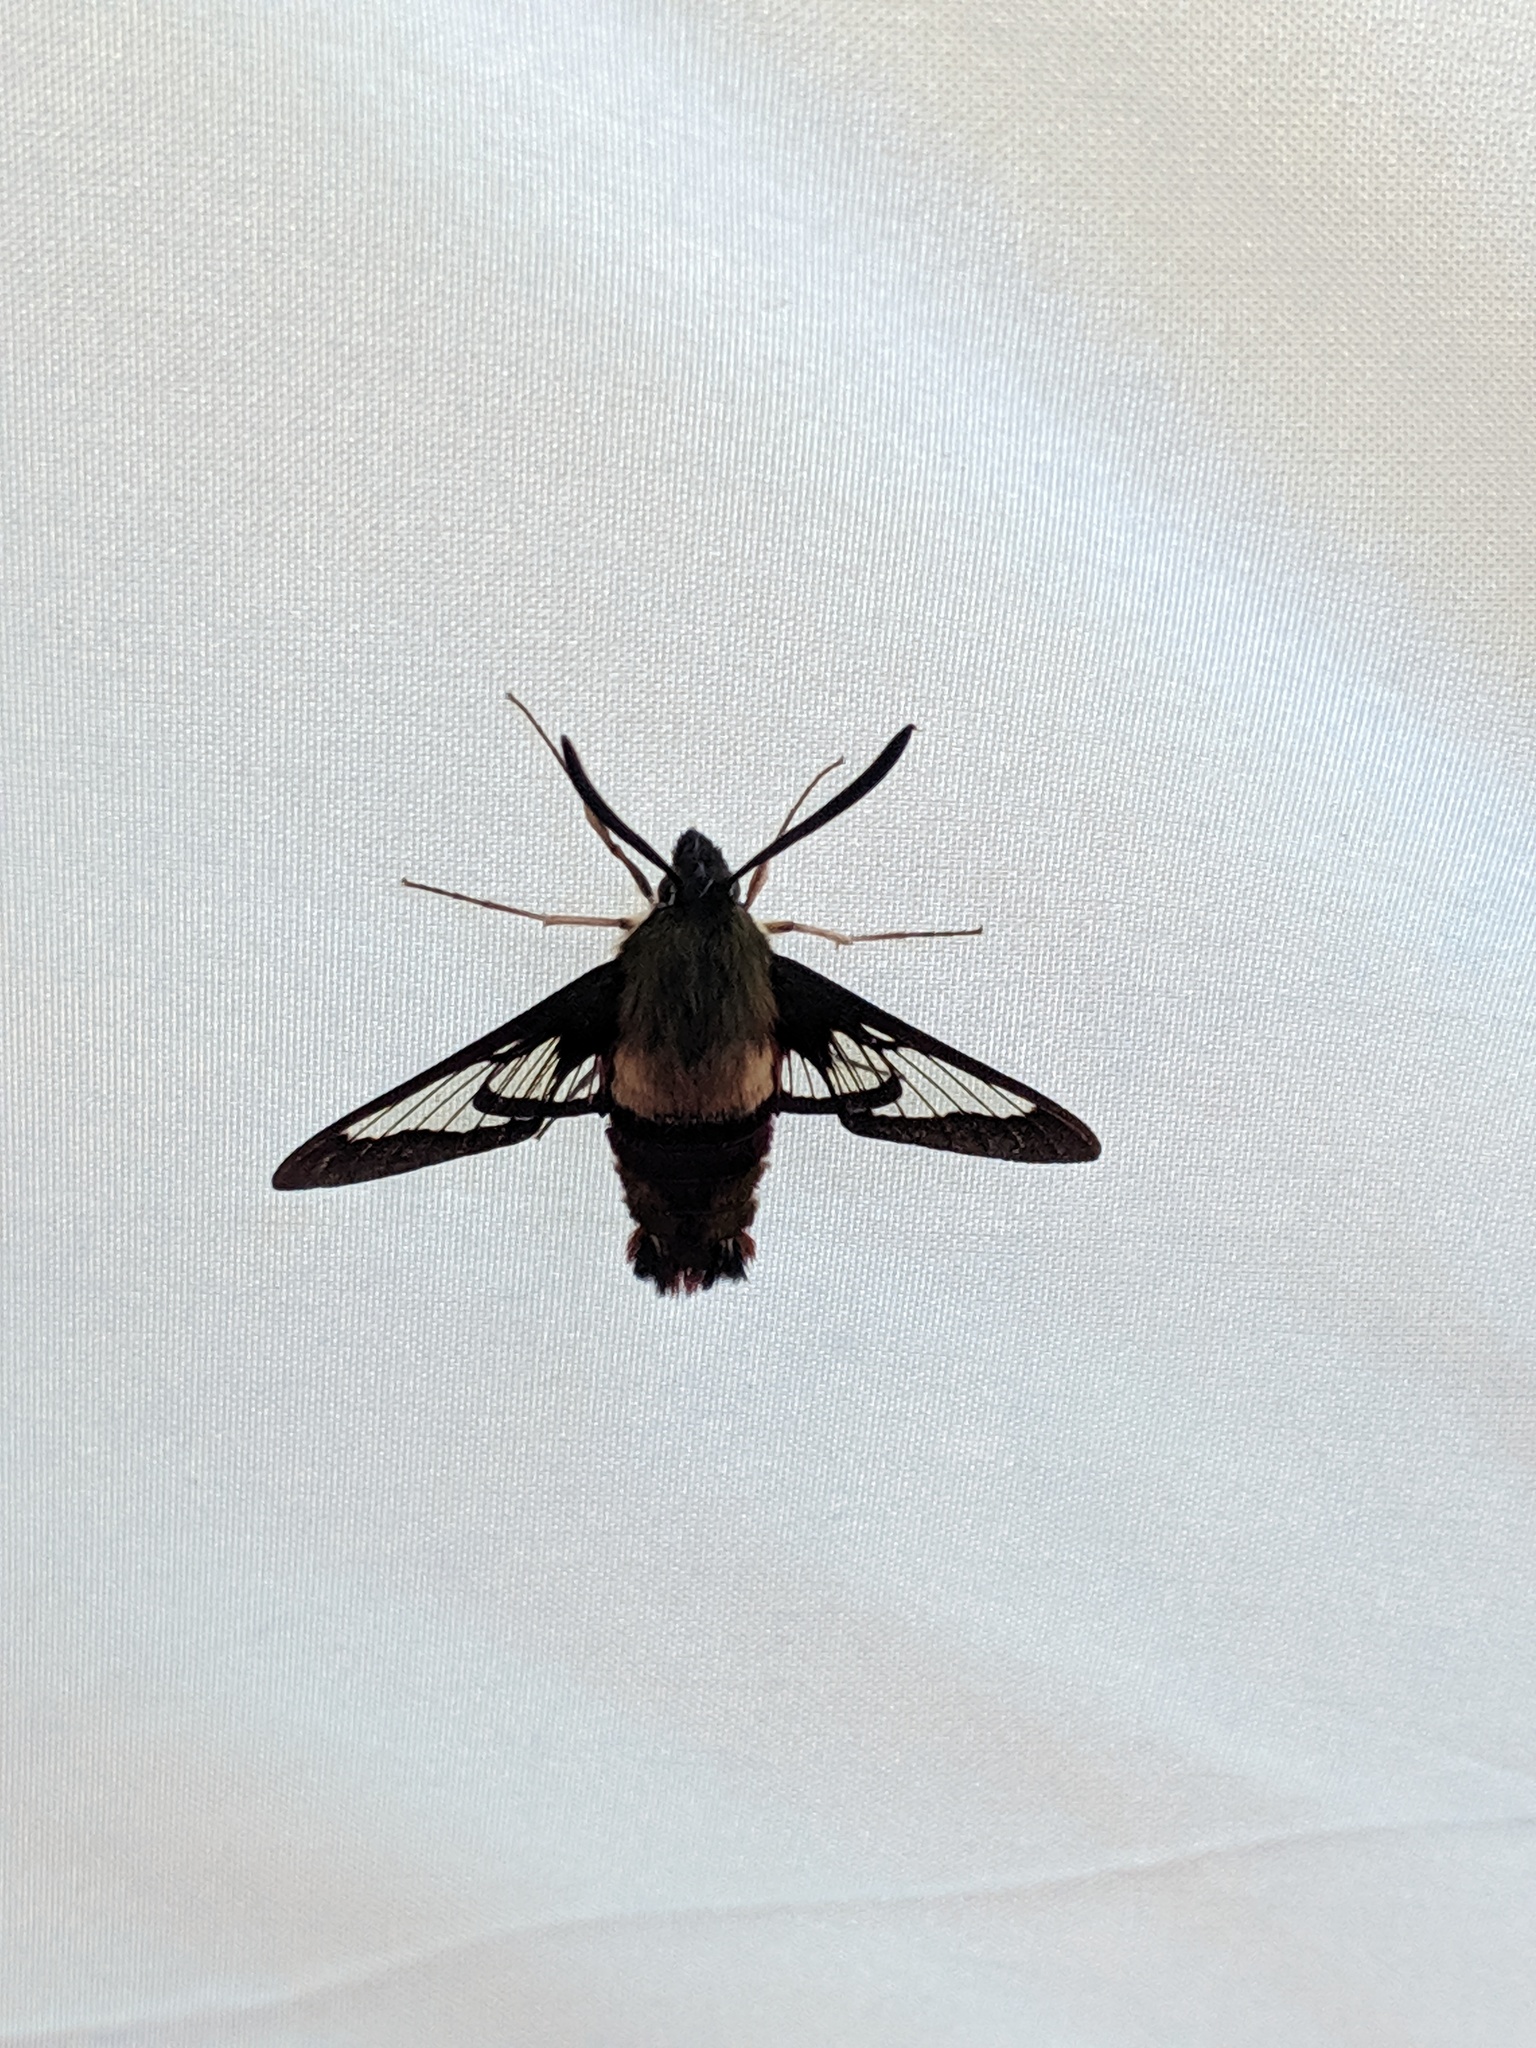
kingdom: Animalia
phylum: Arthropoda
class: Insecta
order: Lepidoptera
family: Sphingidae
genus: Hemaris
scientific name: Hemaris thysbe
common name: Common clear-wing
